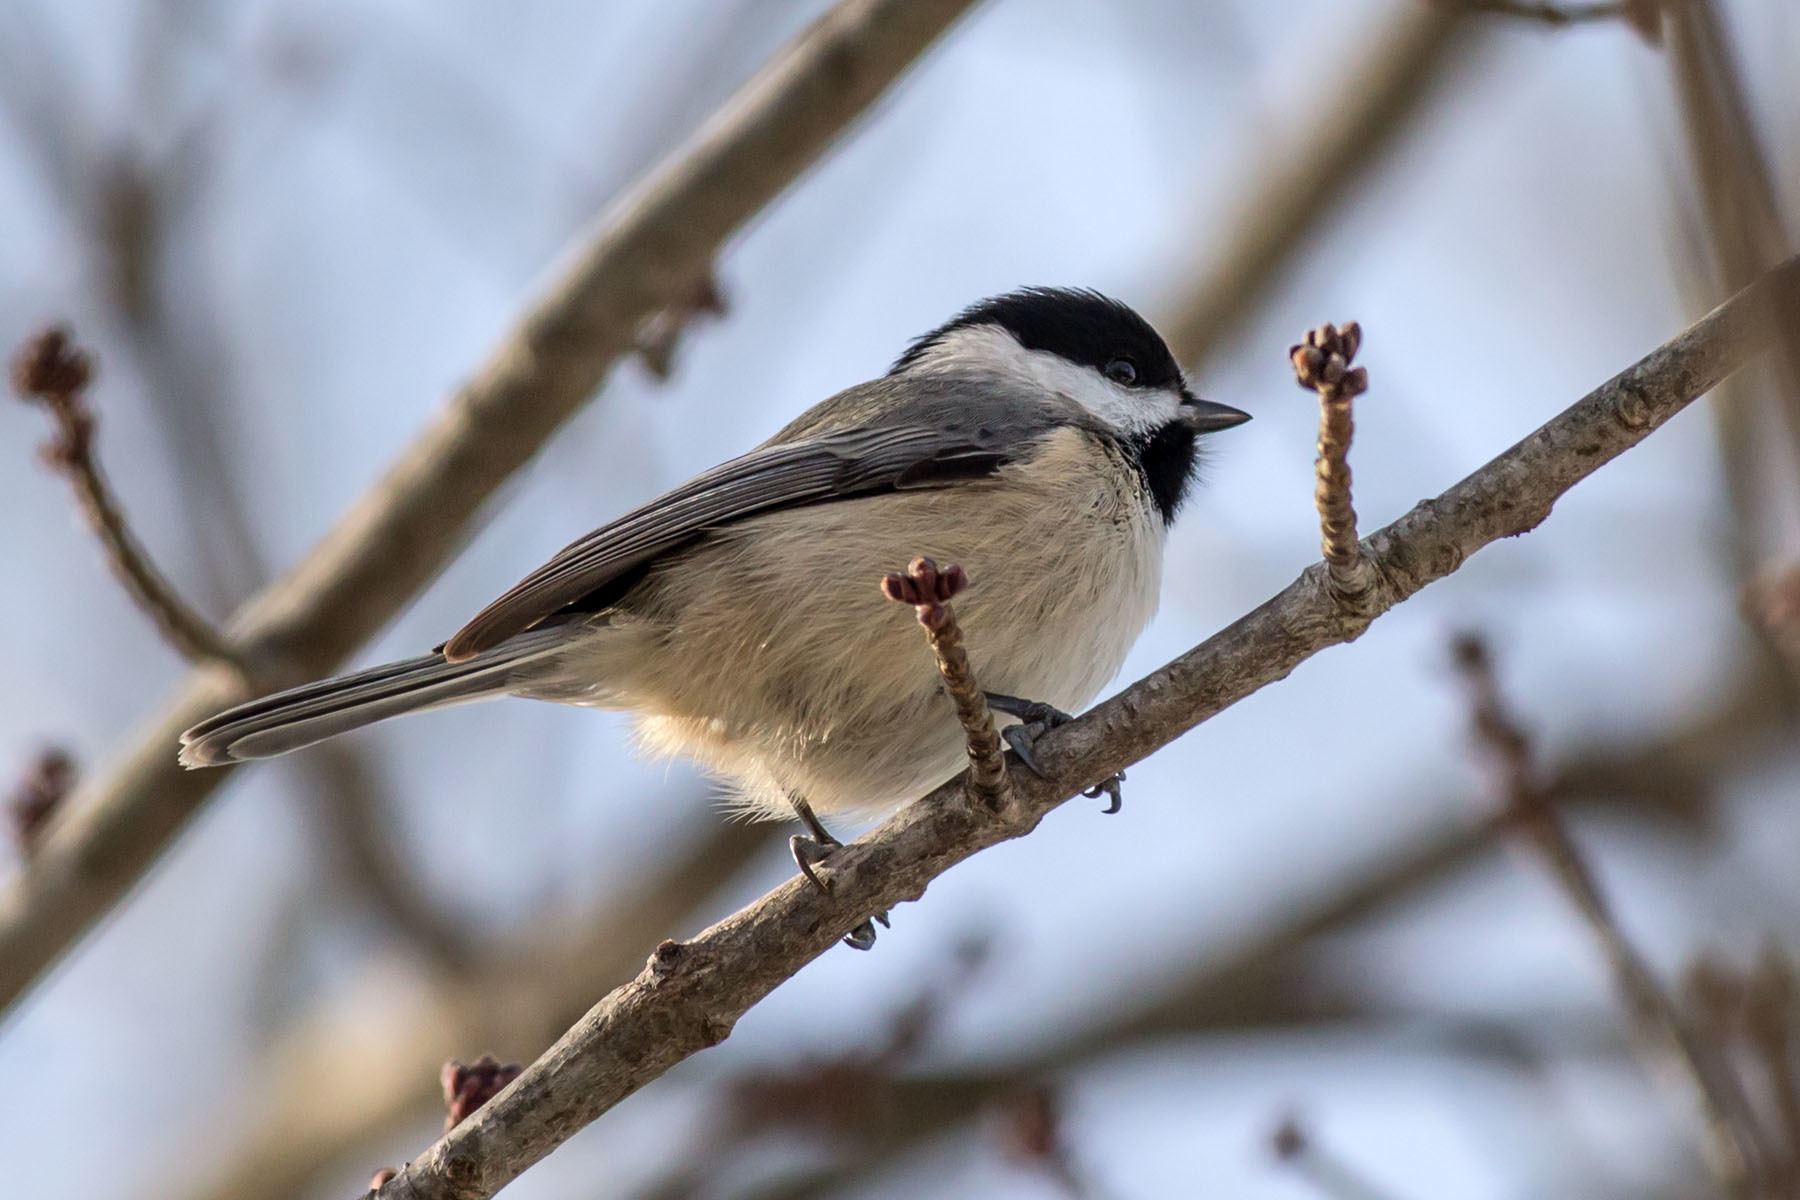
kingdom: Animalia
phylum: Chordata
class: Aves
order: Passeriformes
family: Paridae
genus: Poecile
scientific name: Poecile carolinensis
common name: Carolina chickadee
